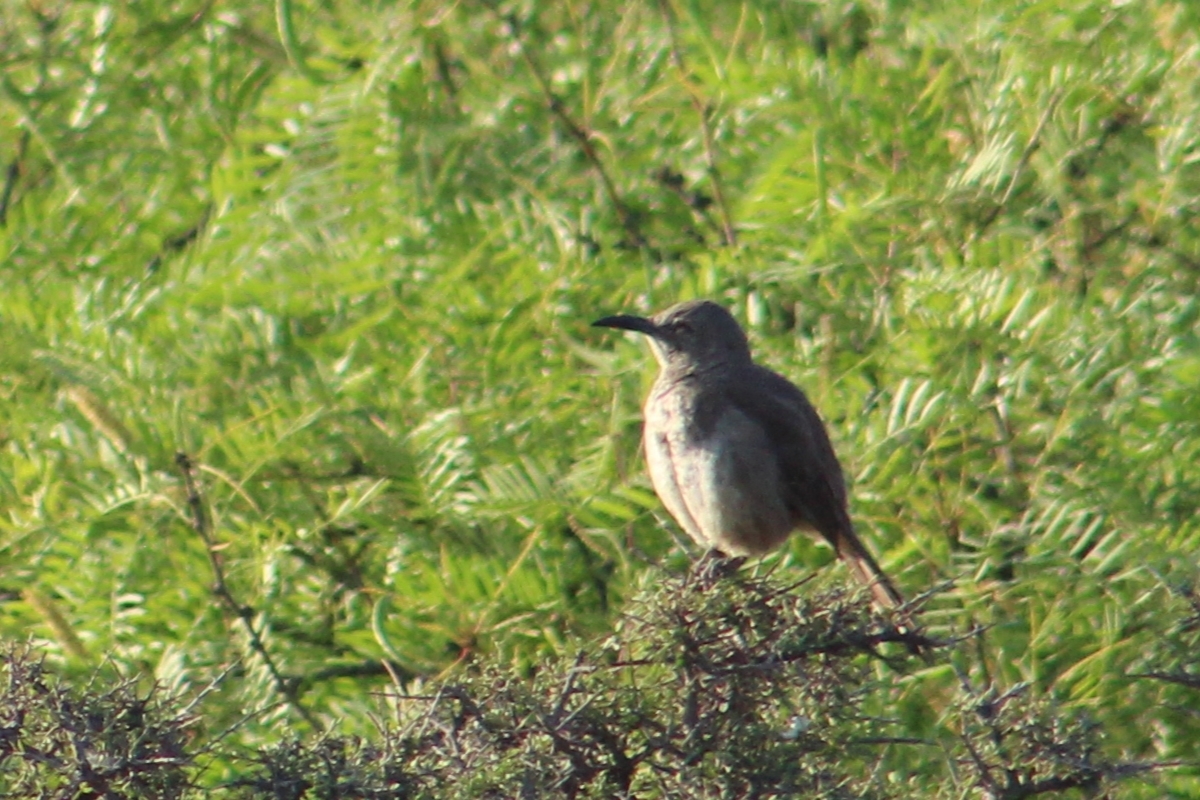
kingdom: Animalia
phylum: Chordata
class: Aves
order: Passeriformes
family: Mimidae
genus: Toxostoma
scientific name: Toxostoma curvirostre
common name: Curve-billed thrasher
